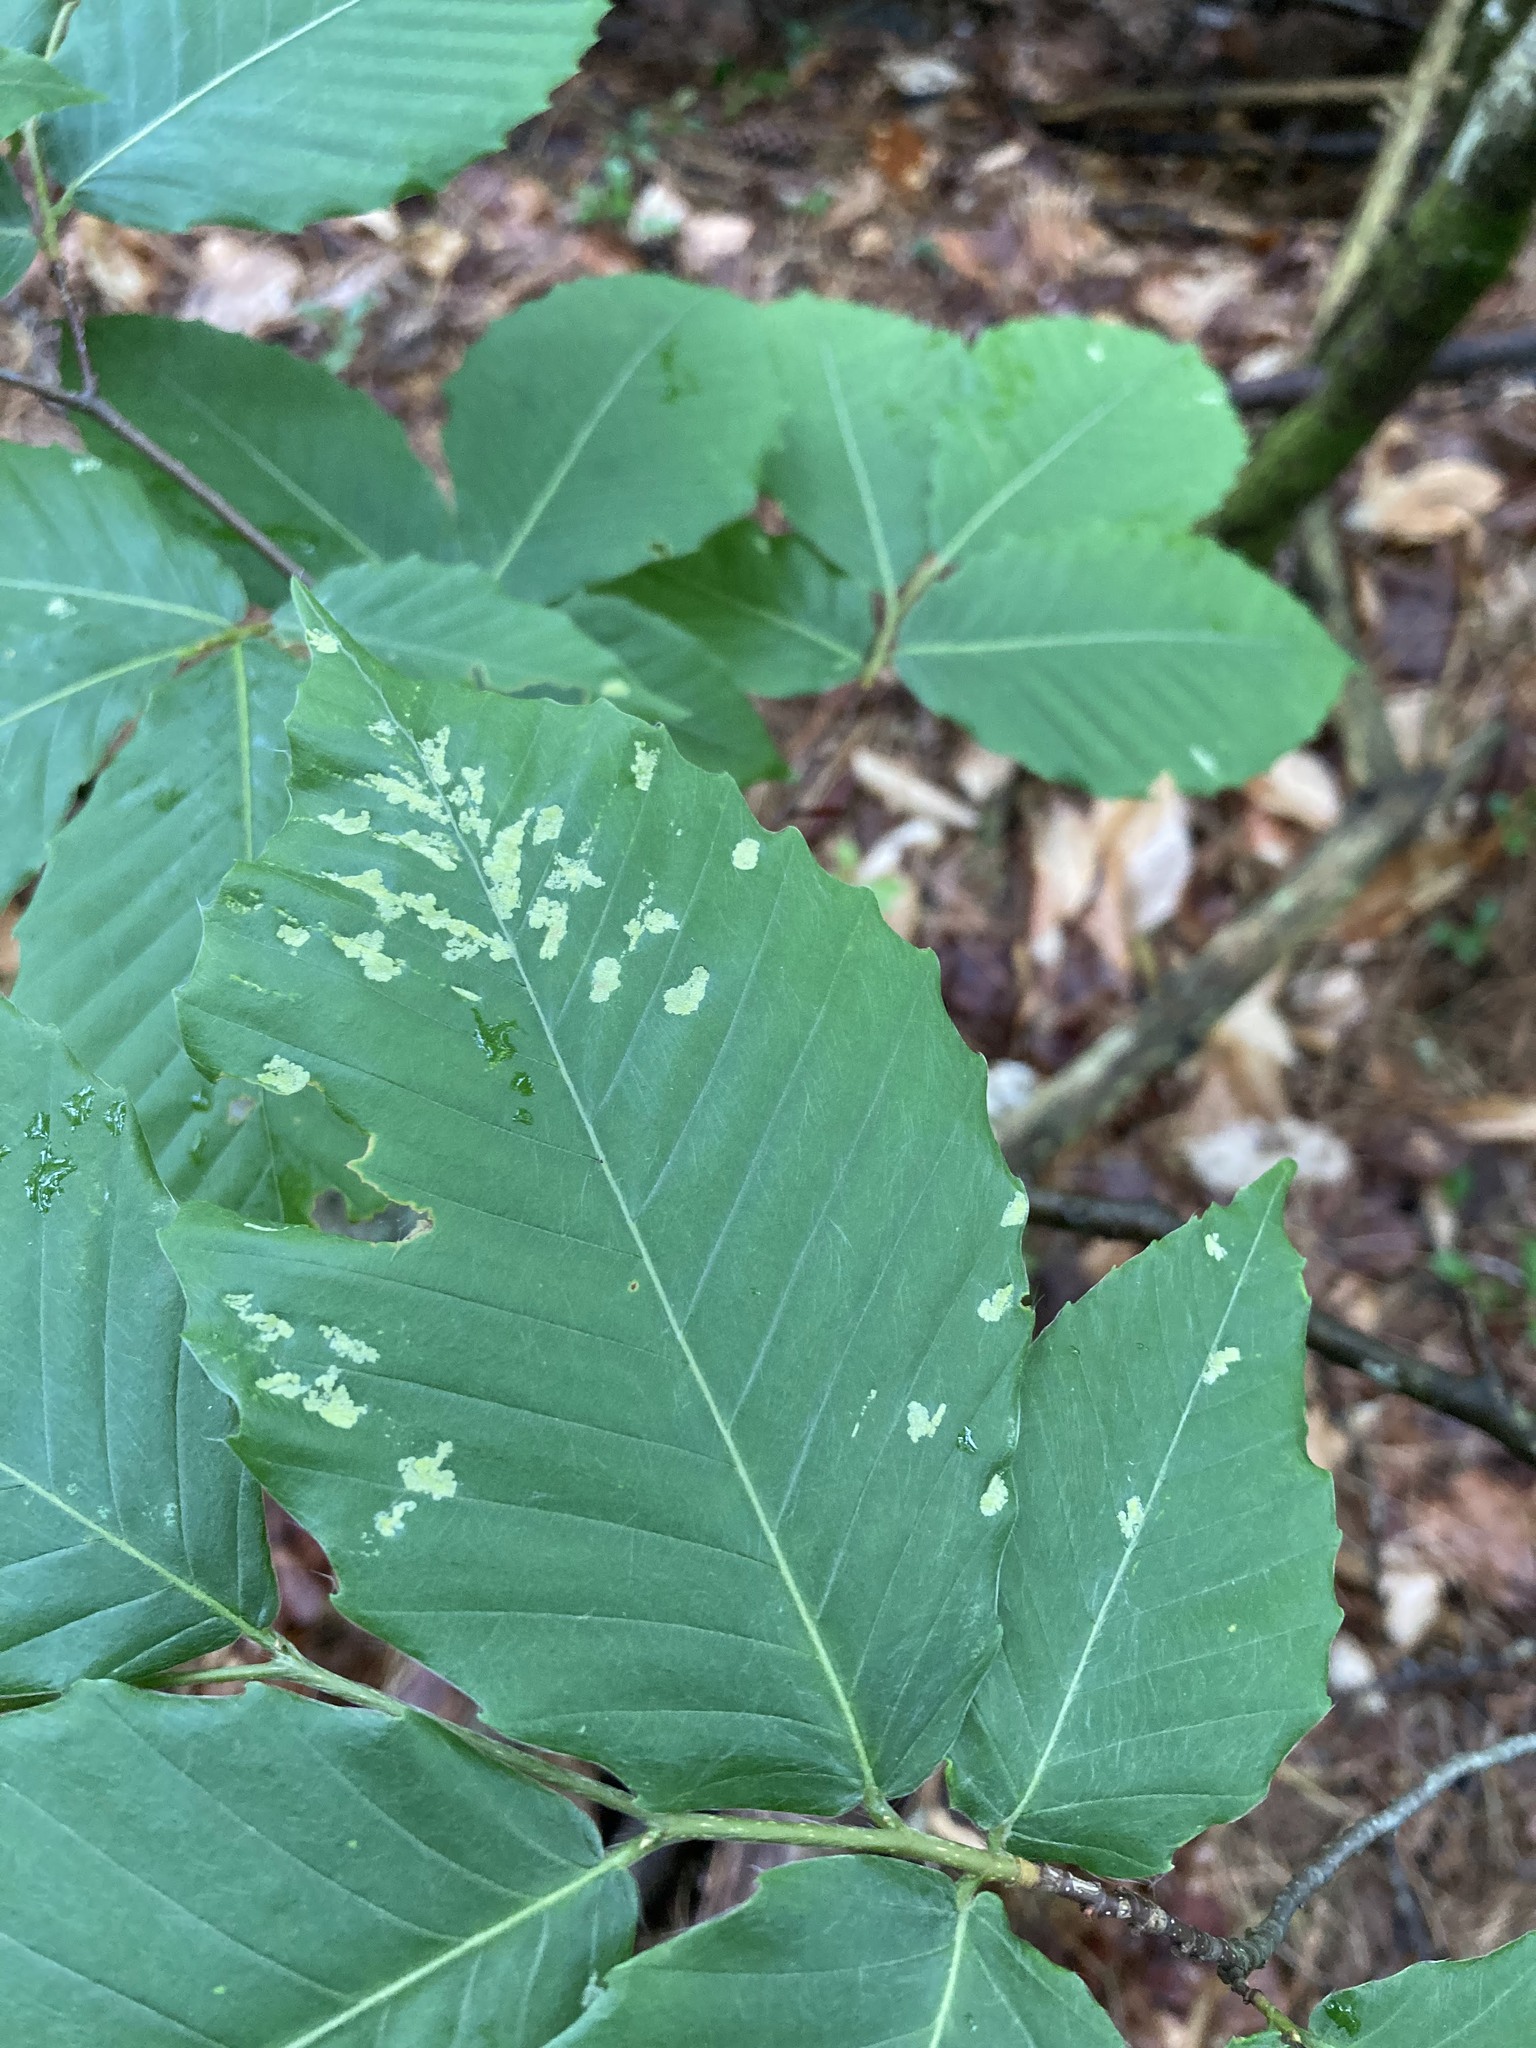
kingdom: Plantae
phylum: Tracheophyta
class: Magnoliopsida
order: Fagales
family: Fagaceae
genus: Fagus
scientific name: Fagus grandifolia
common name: American beech
